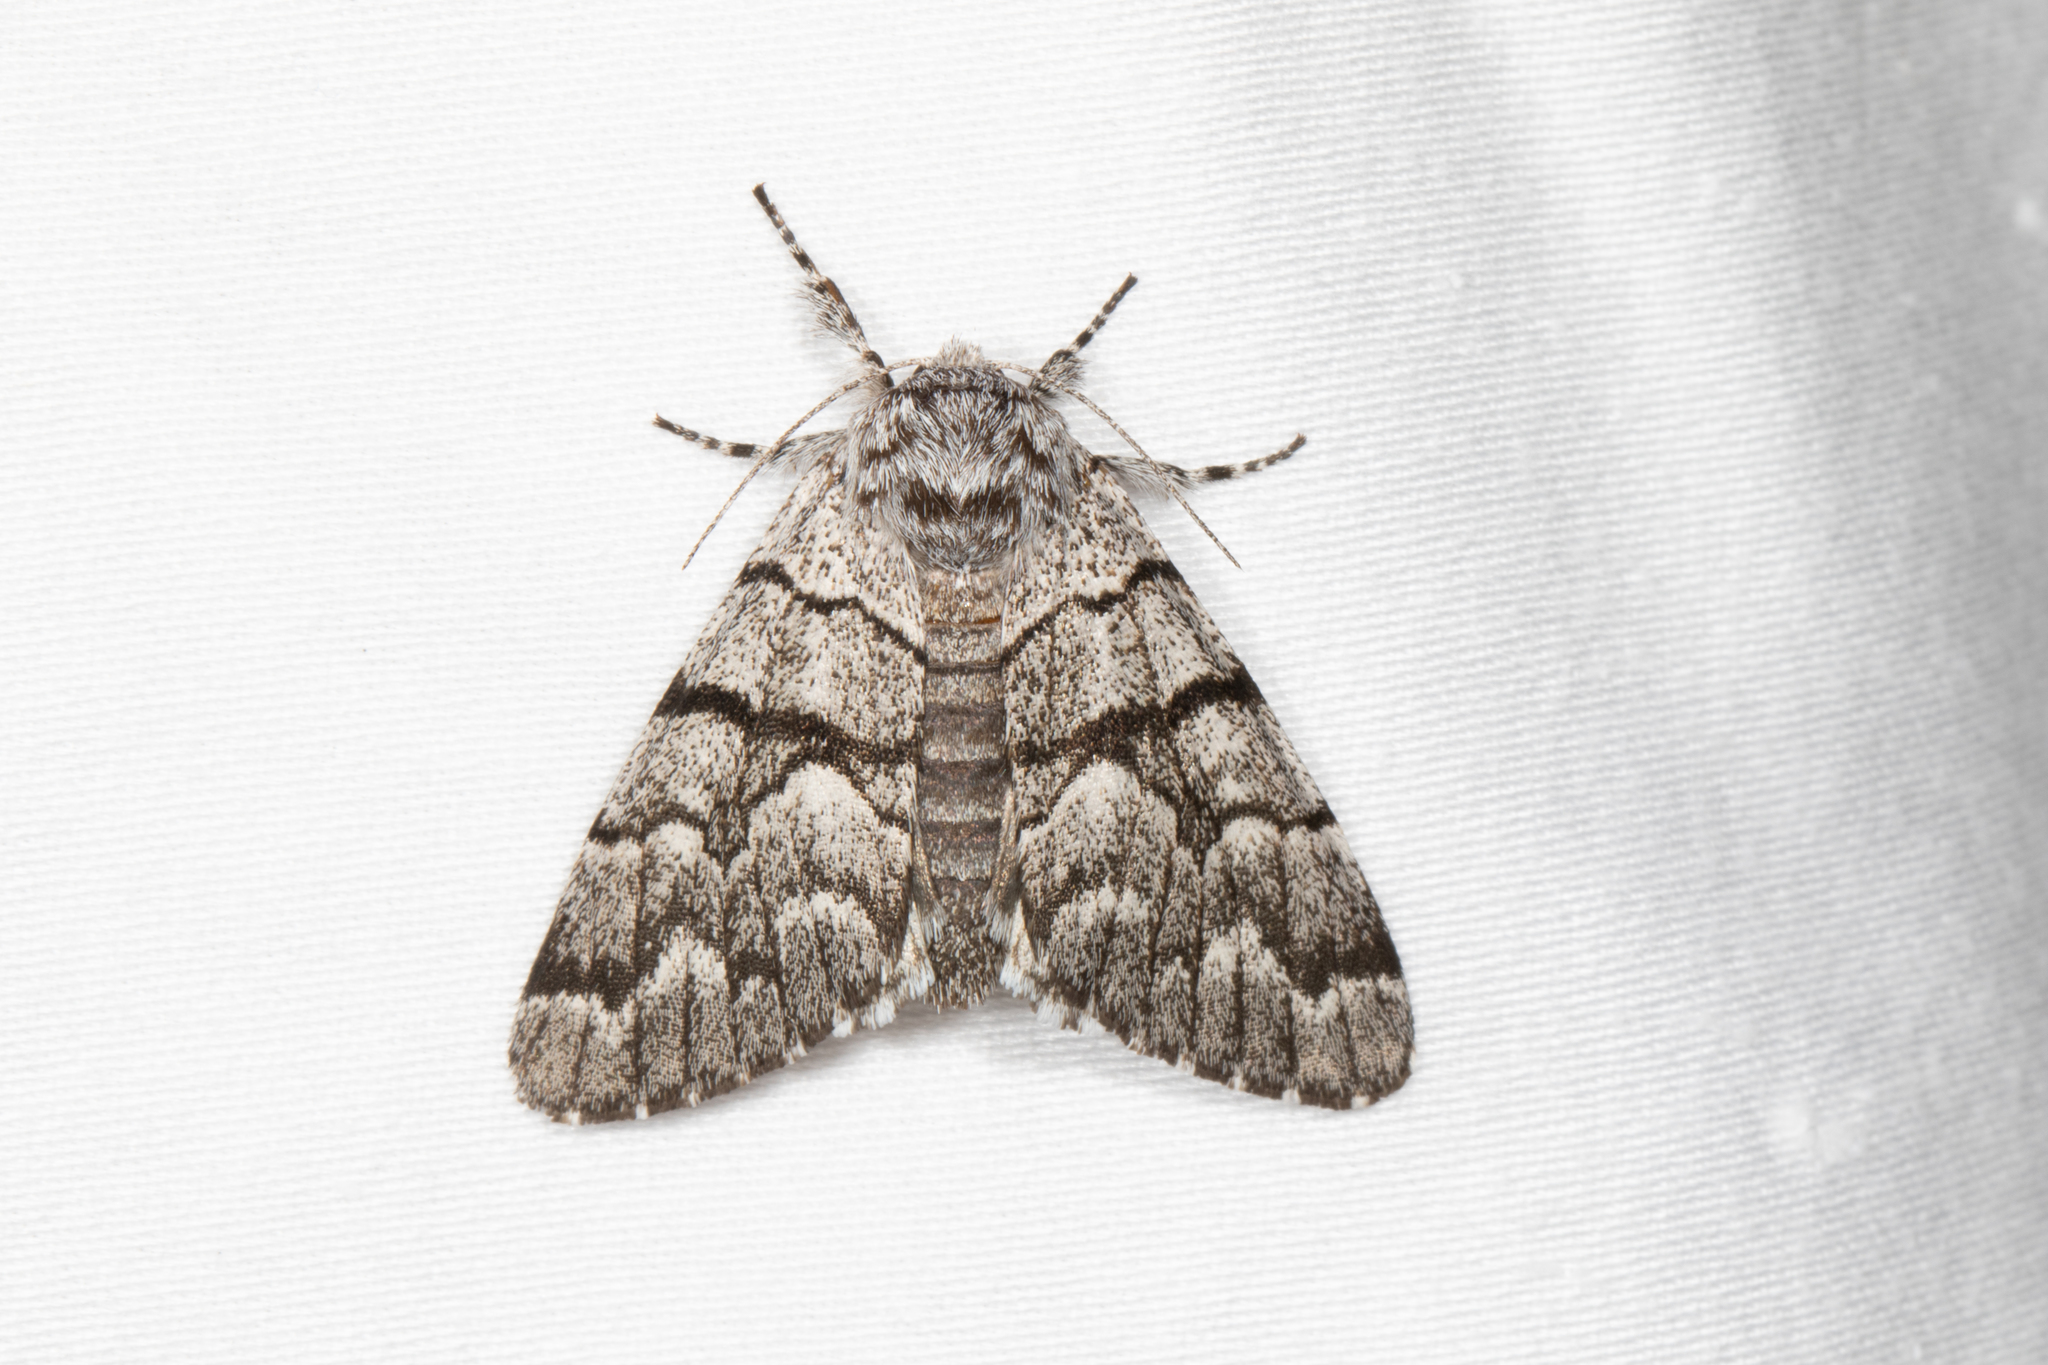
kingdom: Animalia
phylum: Arthropoda
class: Insecta
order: Lepidoptera
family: Noctuidae
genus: Panthea
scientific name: Panthea furcilla
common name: Eastern panthea moth
